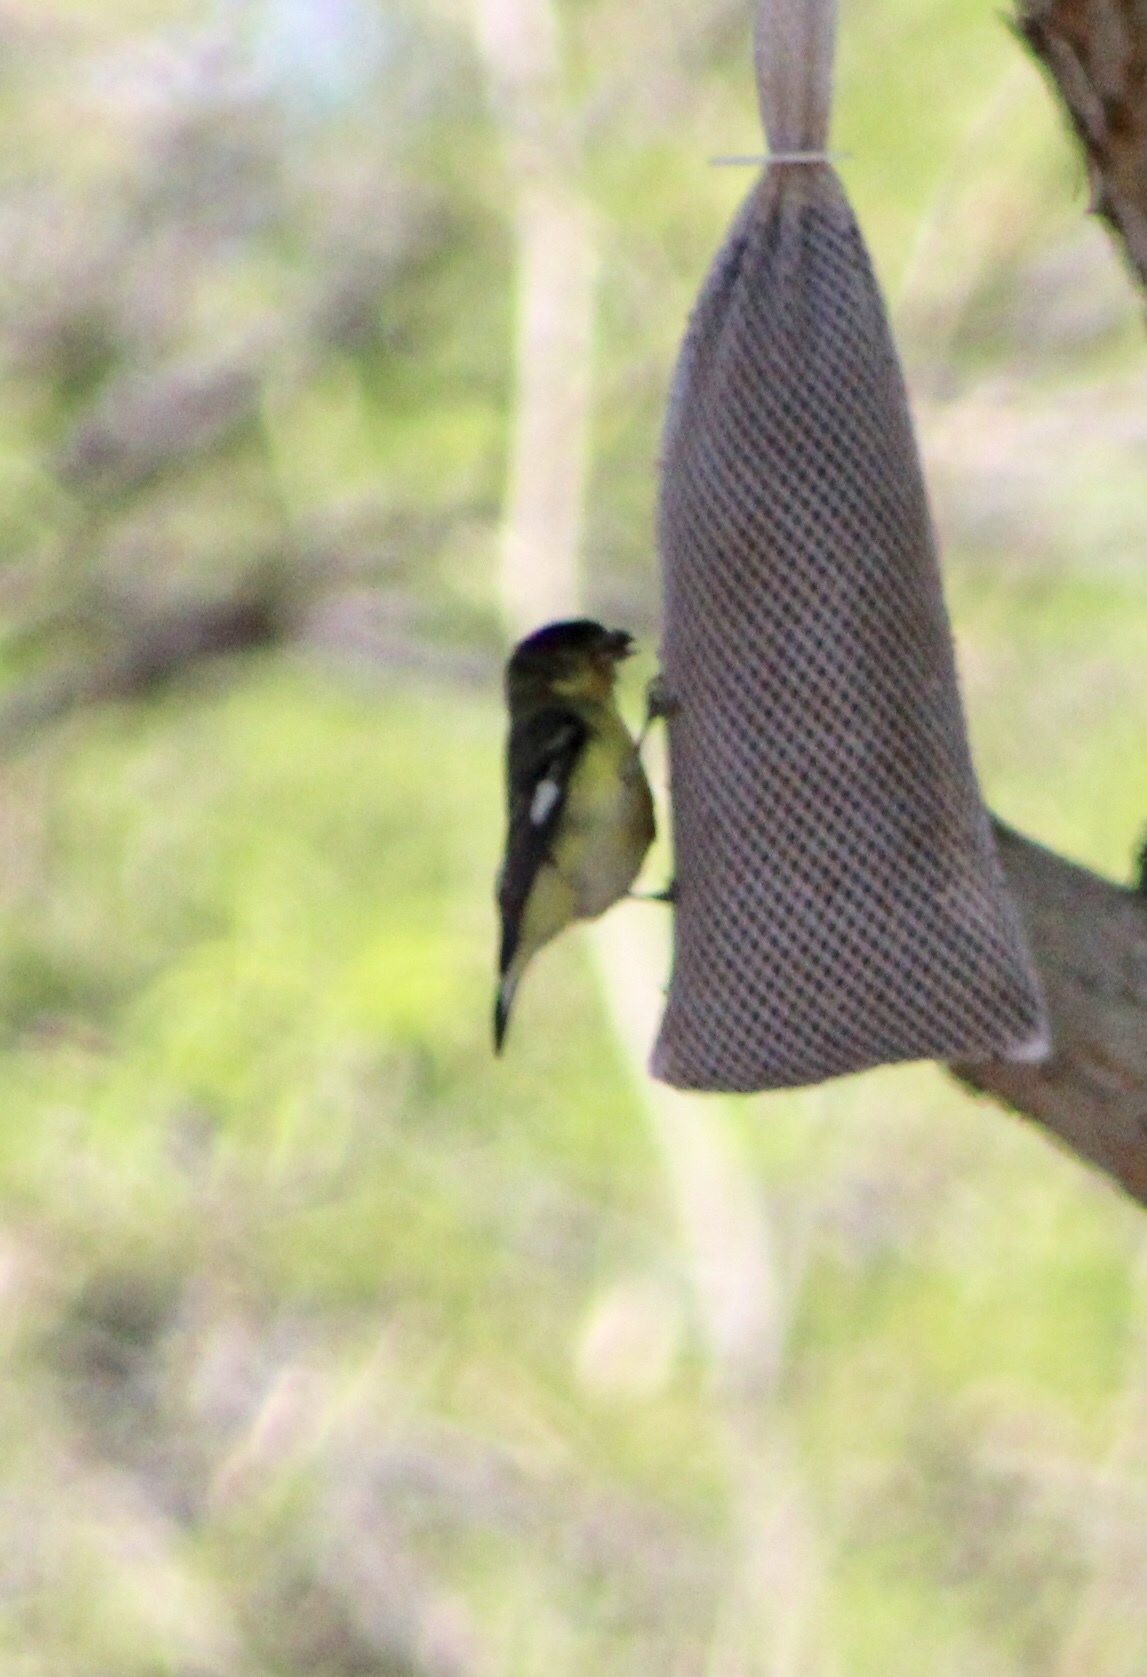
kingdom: Animalia
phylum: Chordata
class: Aves
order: Passeriformes
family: Fringillidae
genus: Spinus
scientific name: Spinus psaltria
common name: Lesser goldfinch
